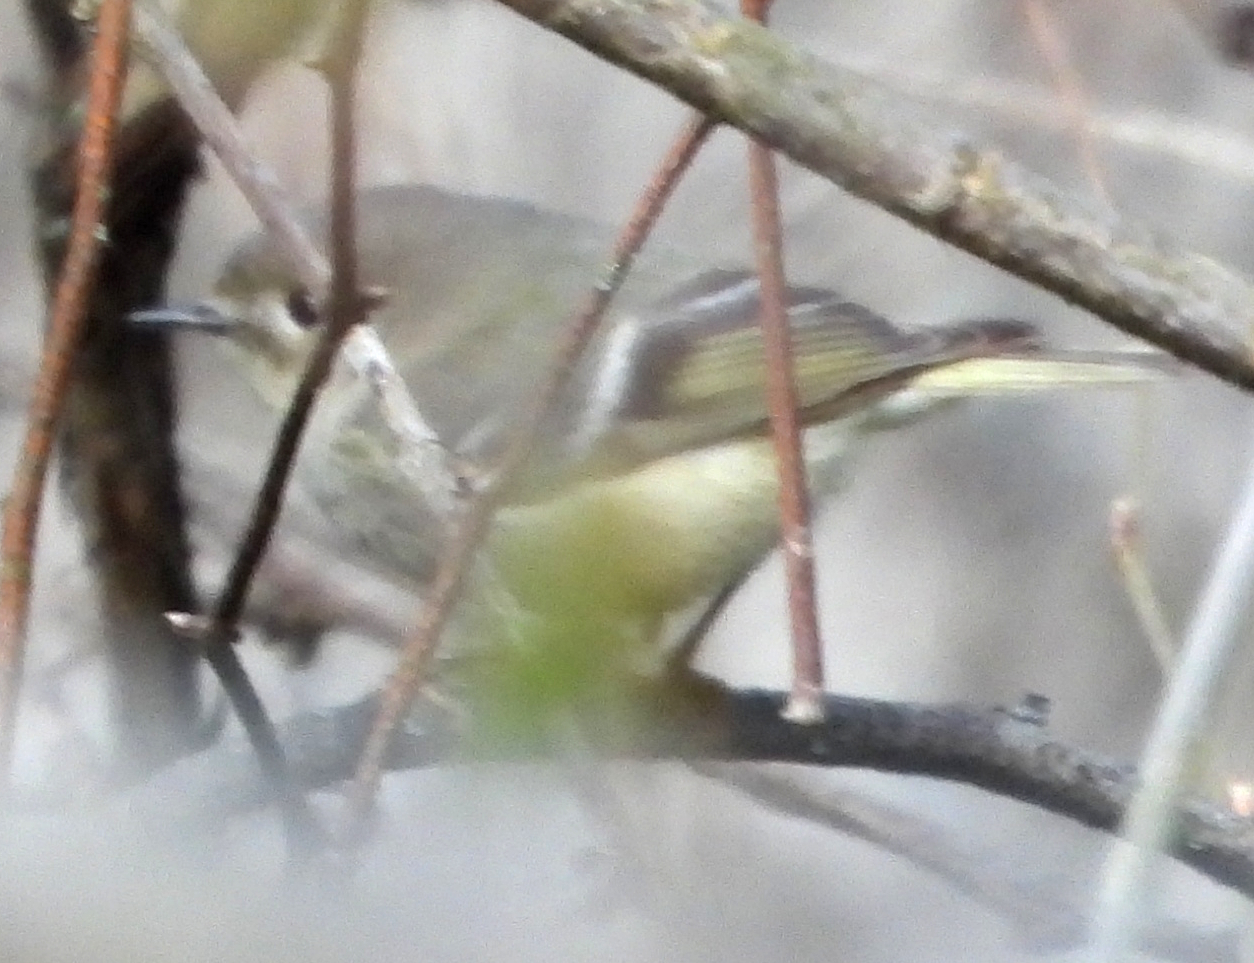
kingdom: Animalia
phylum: Chordata
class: Aves
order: Passeriformes
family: Regulidae
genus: Regulus
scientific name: Regulus calendula
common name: Ruby-crowned kinglet
